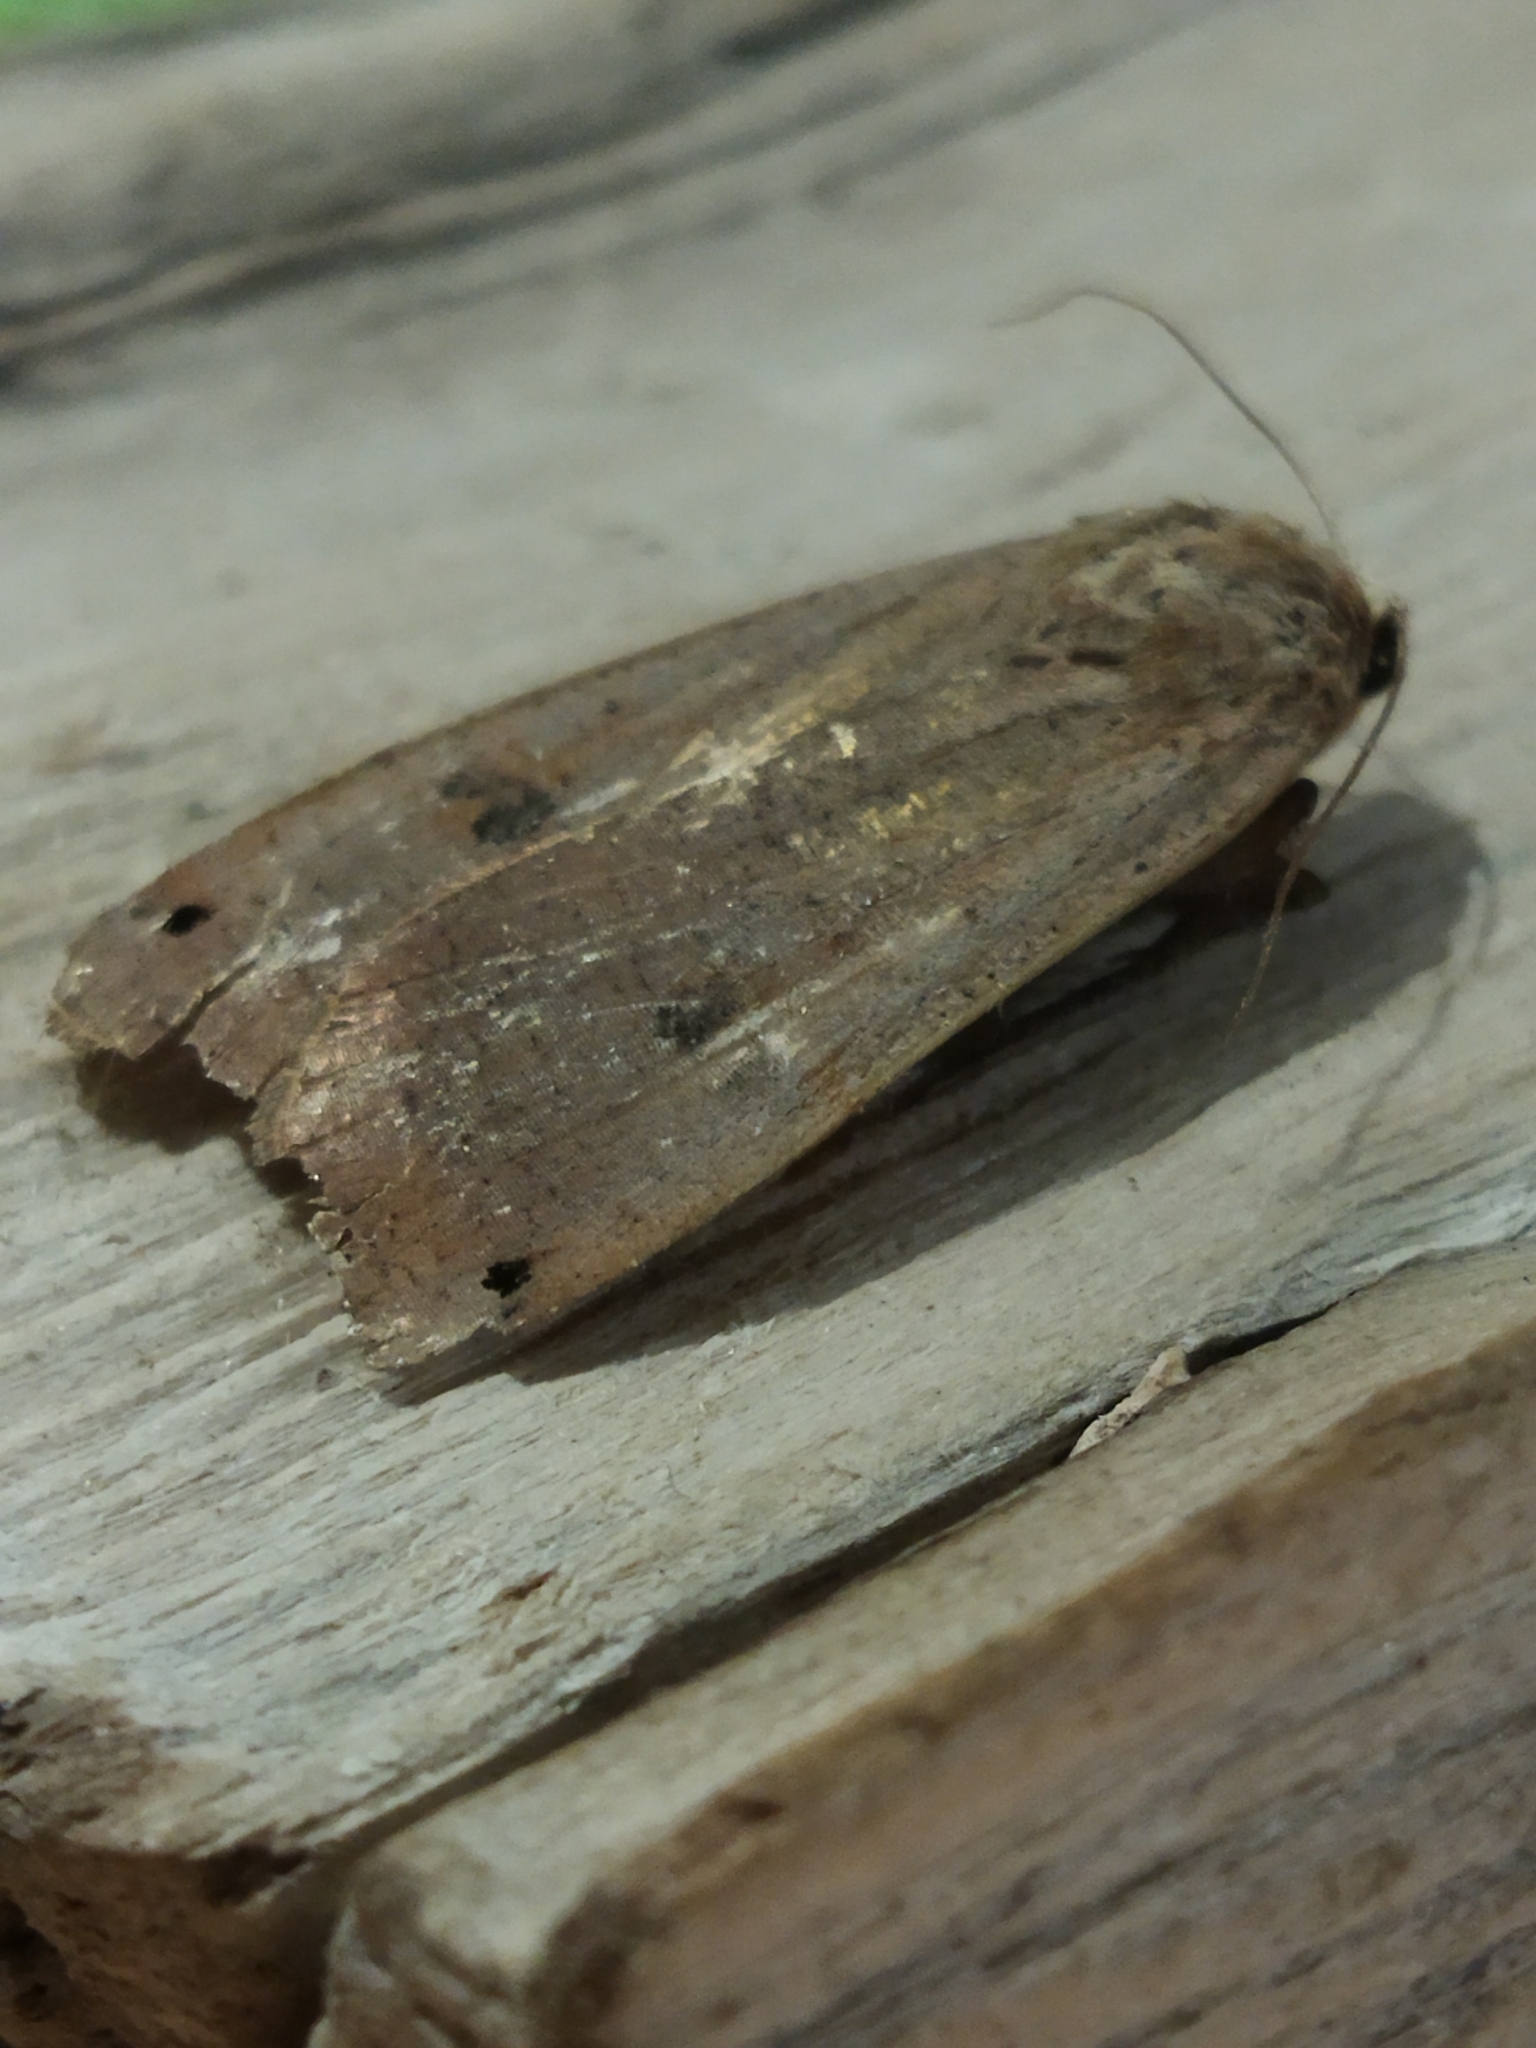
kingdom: Animalia
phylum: Arthropoda
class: Insecta
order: Lepidoptera
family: Noctuidae
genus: Noctua
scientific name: Noctua pronuba
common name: Large yellow underwing
